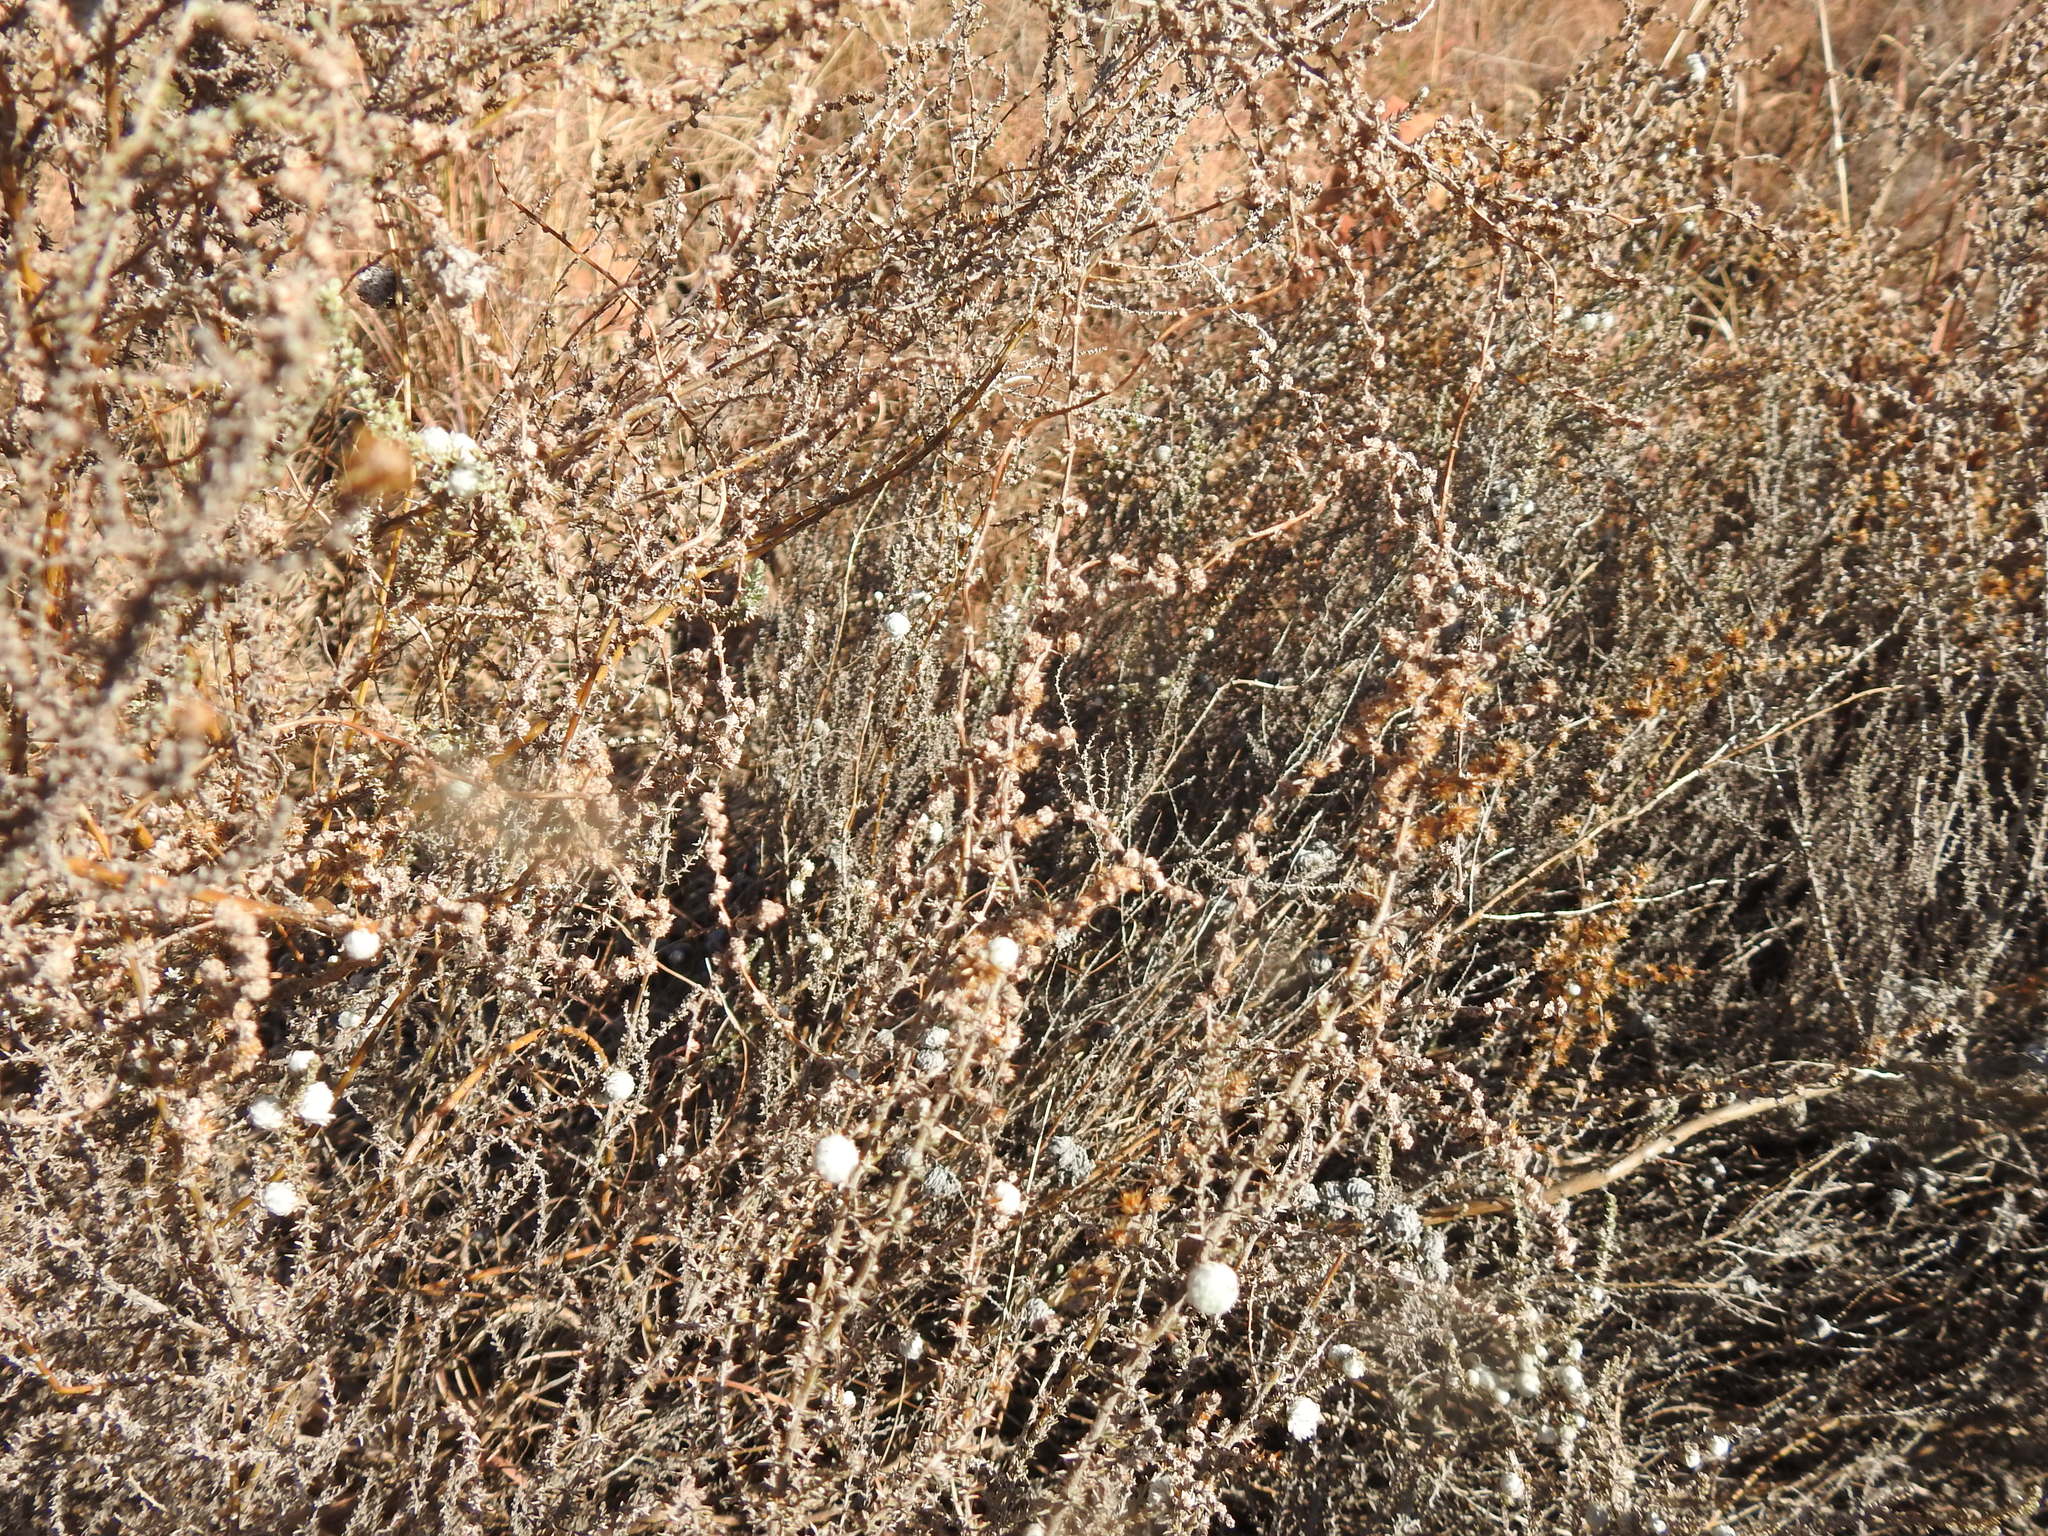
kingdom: Plantae
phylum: Tracheophyta
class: Magnoliopsida
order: Asterales
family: Asteraceae
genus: Seriphium
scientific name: Seriphium
